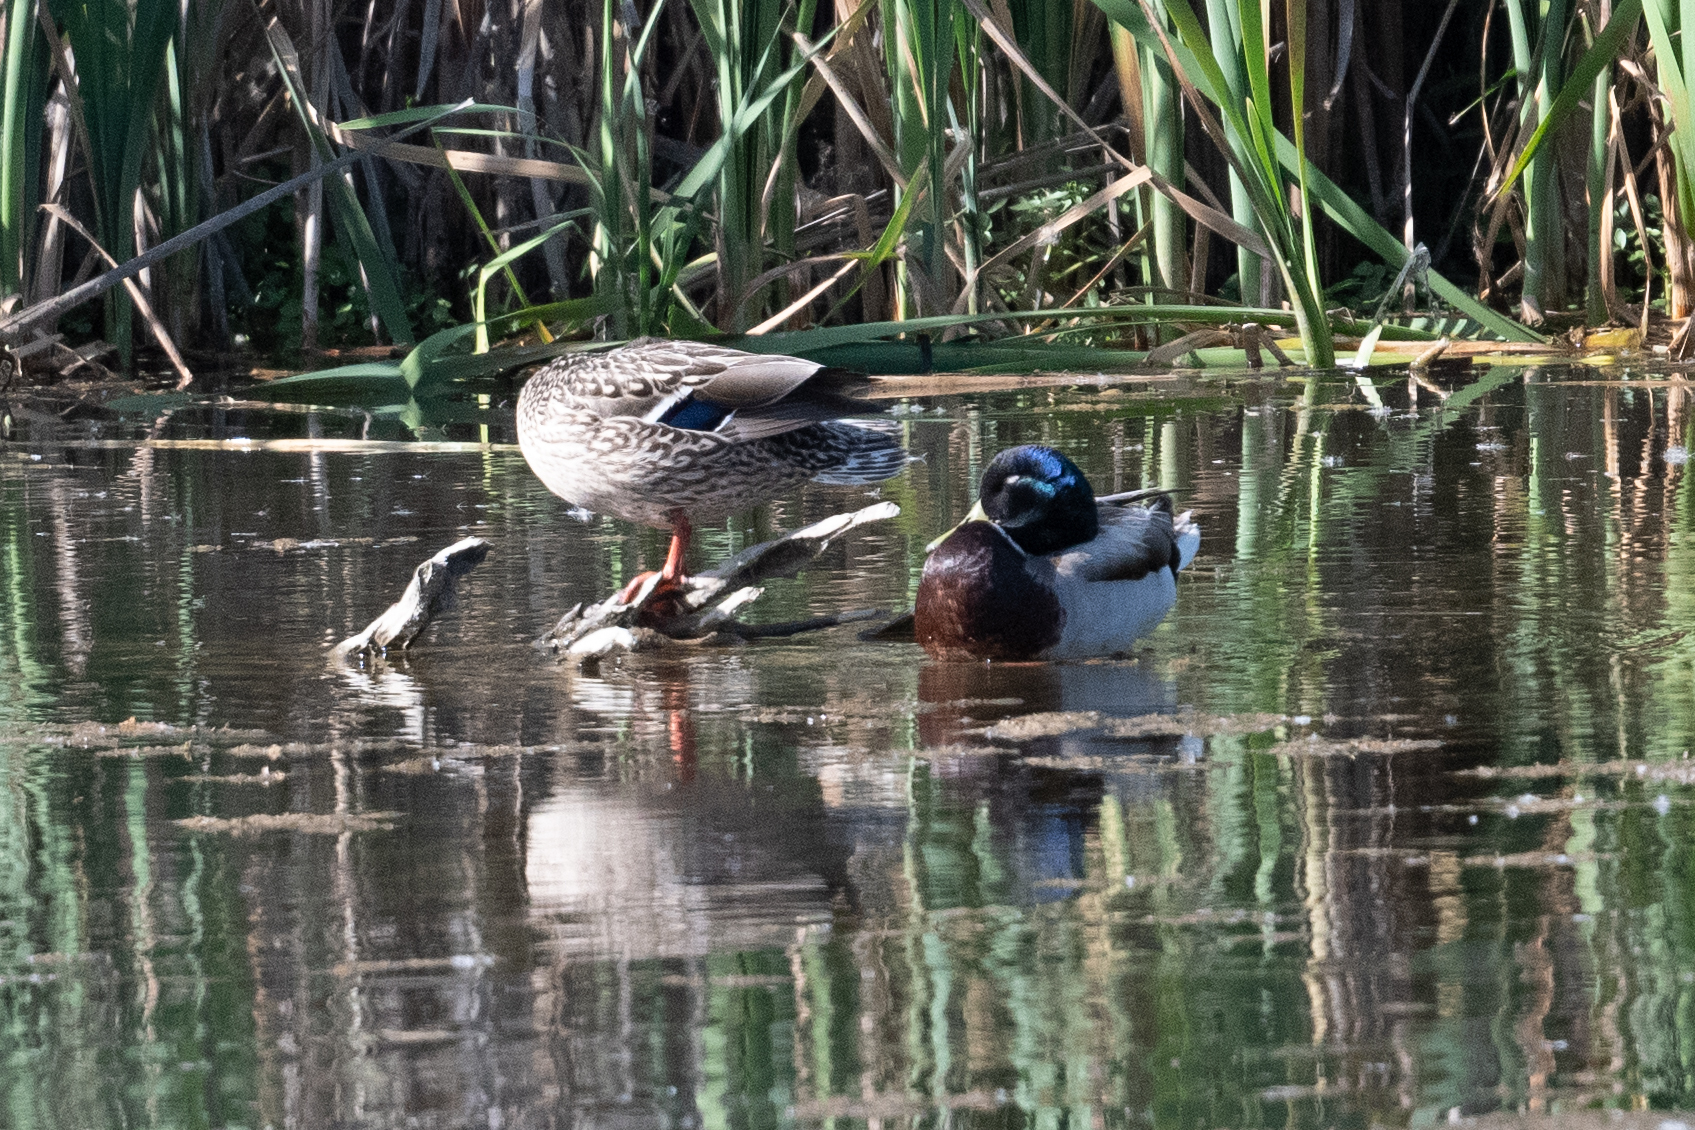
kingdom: Animalia
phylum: Chordata
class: Aves
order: Anseriformes
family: Anatidae
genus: Anas
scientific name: Anas platyrhynchos
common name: Mallard
